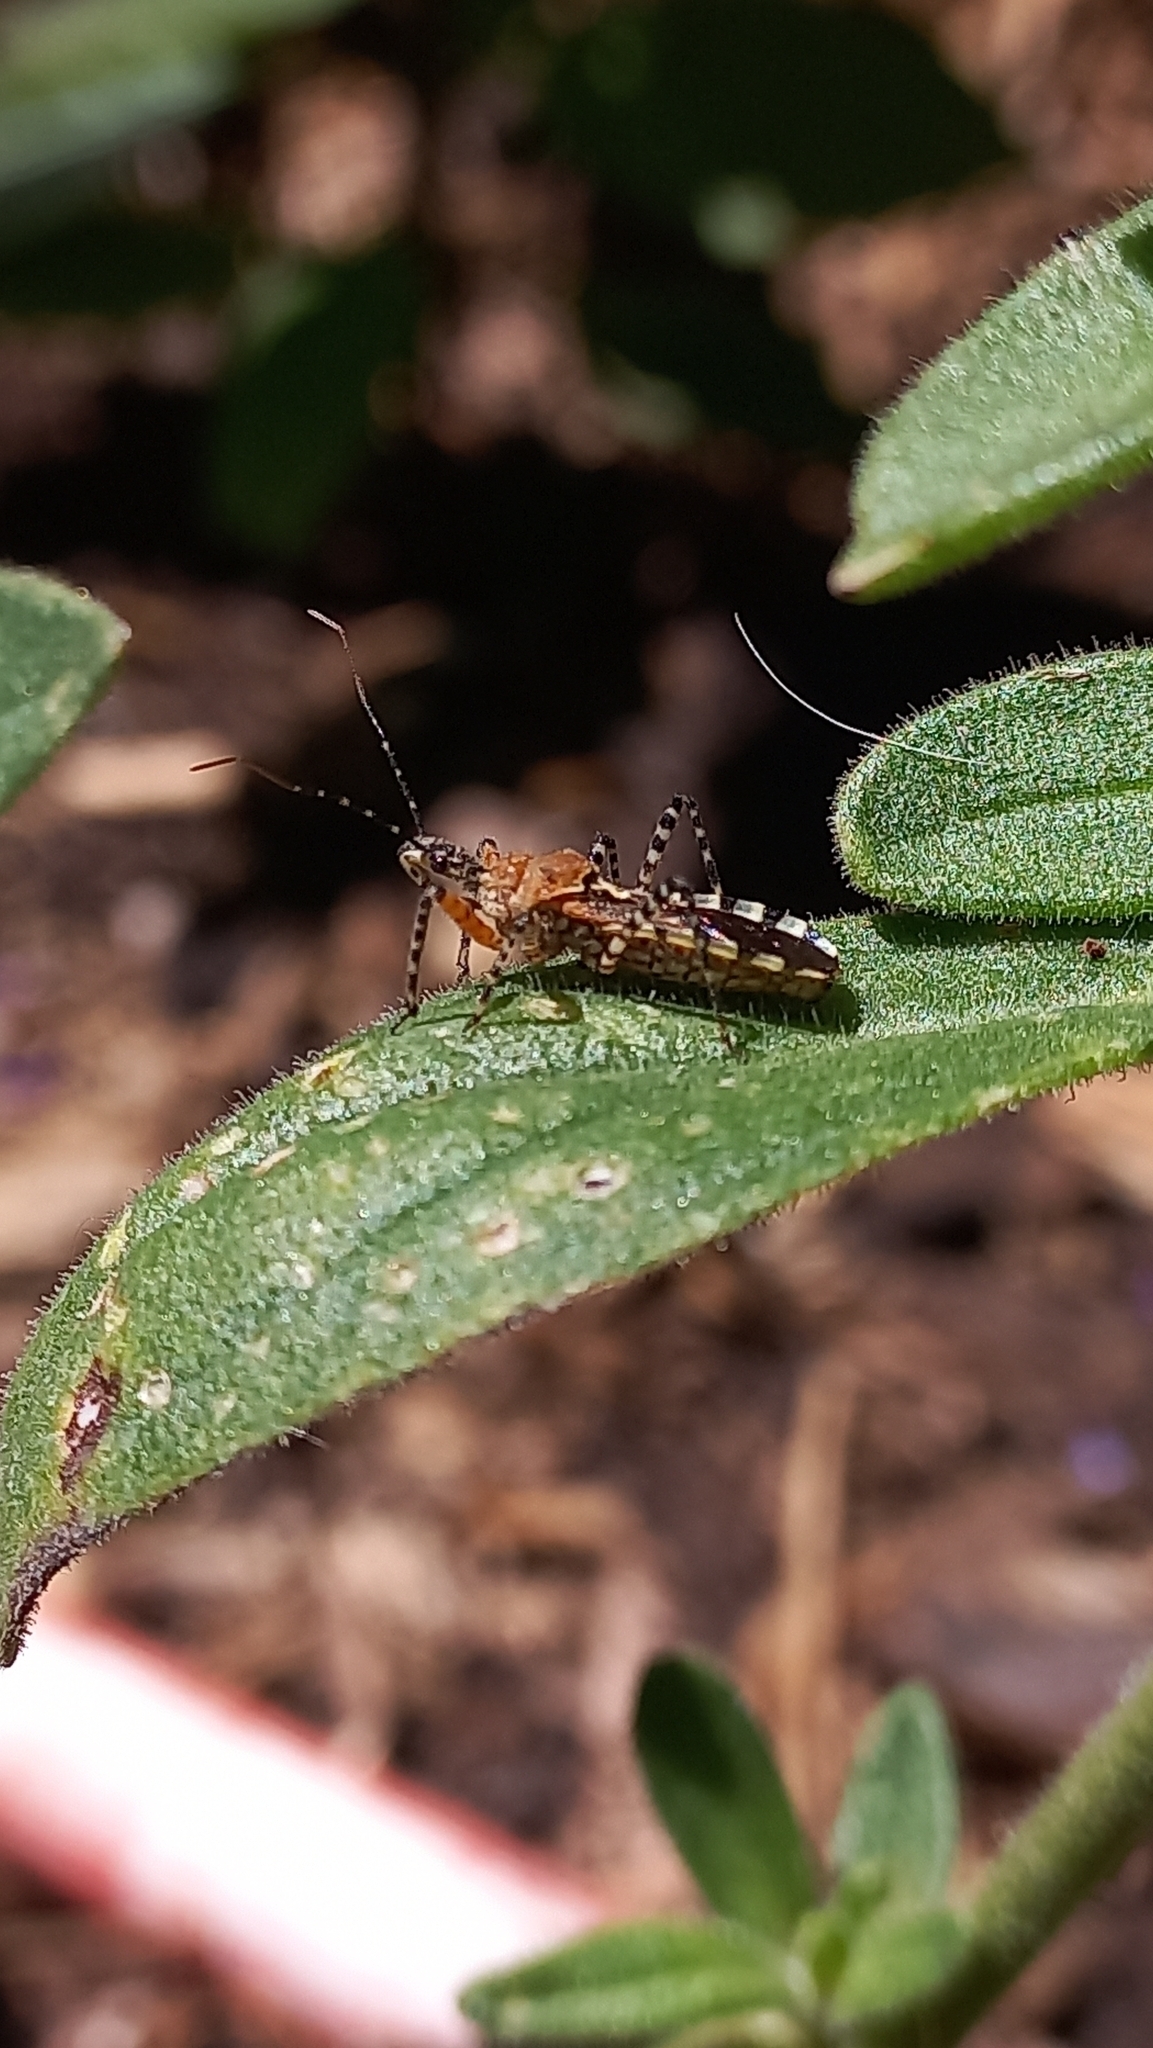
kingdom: Animalia
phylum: Arthropoda
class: Insecta
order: Hemiptera
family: Reduviidae
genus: Cosmoclopius
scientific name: Cosmoclopius nigroannulatus
